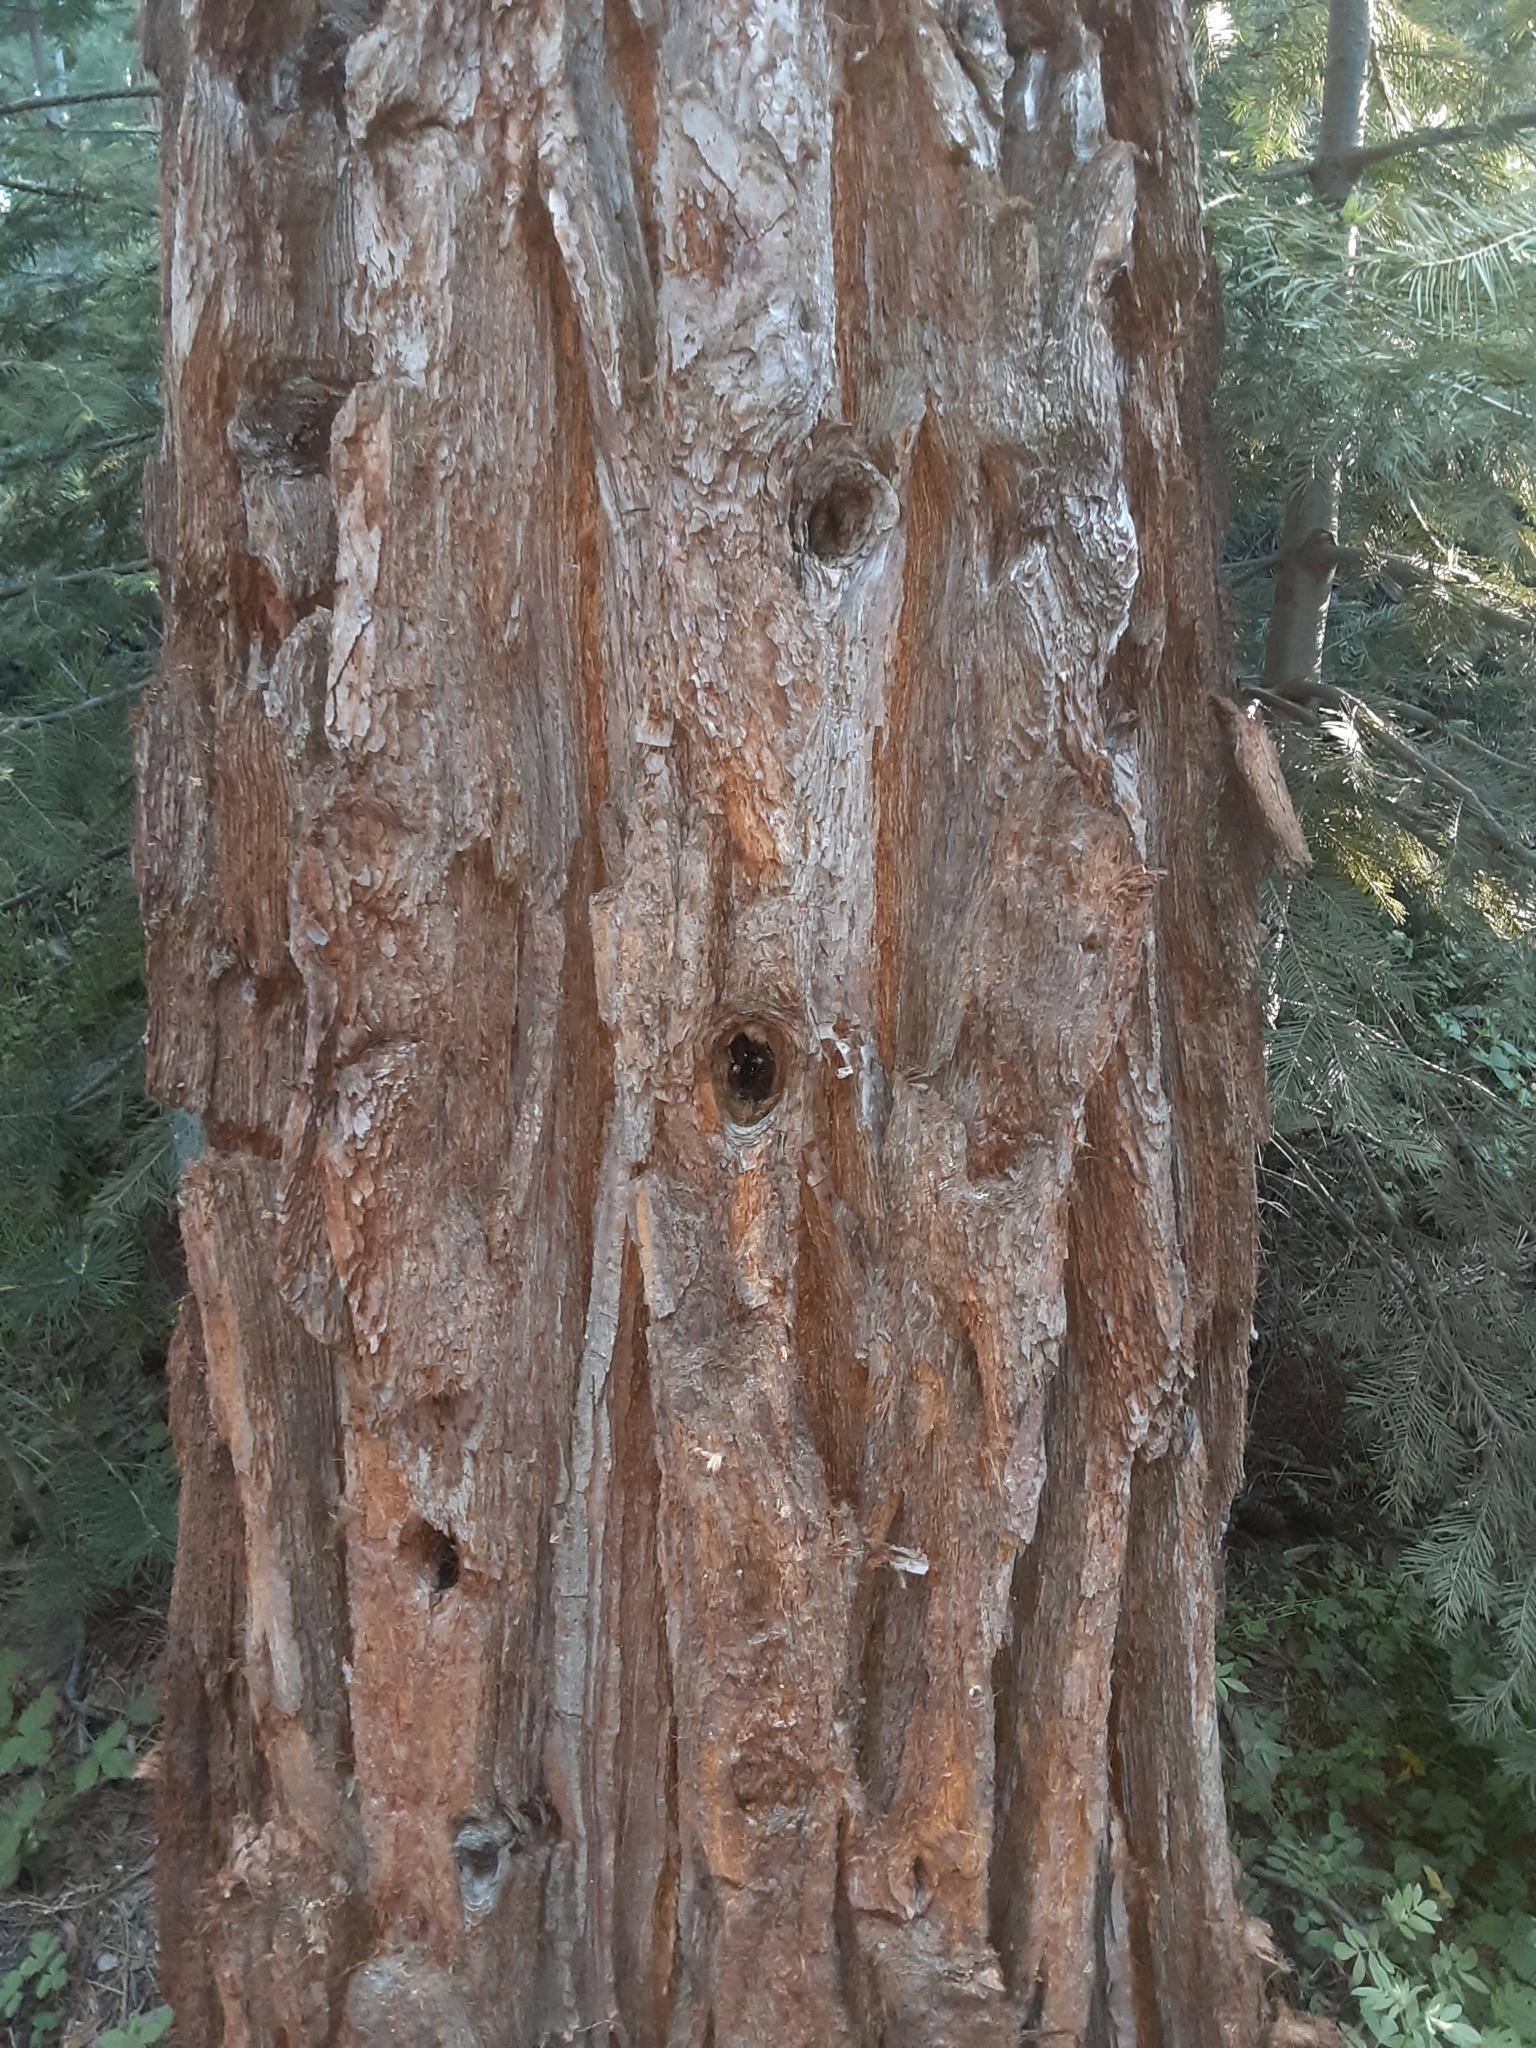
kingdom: Plantae
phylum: Tracheophyta
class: Pinopsida
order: Pinales
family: Cupressaceae
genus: Sequoiadendron
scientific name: Sequoiadendron giganteum
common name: Wellingtonia
